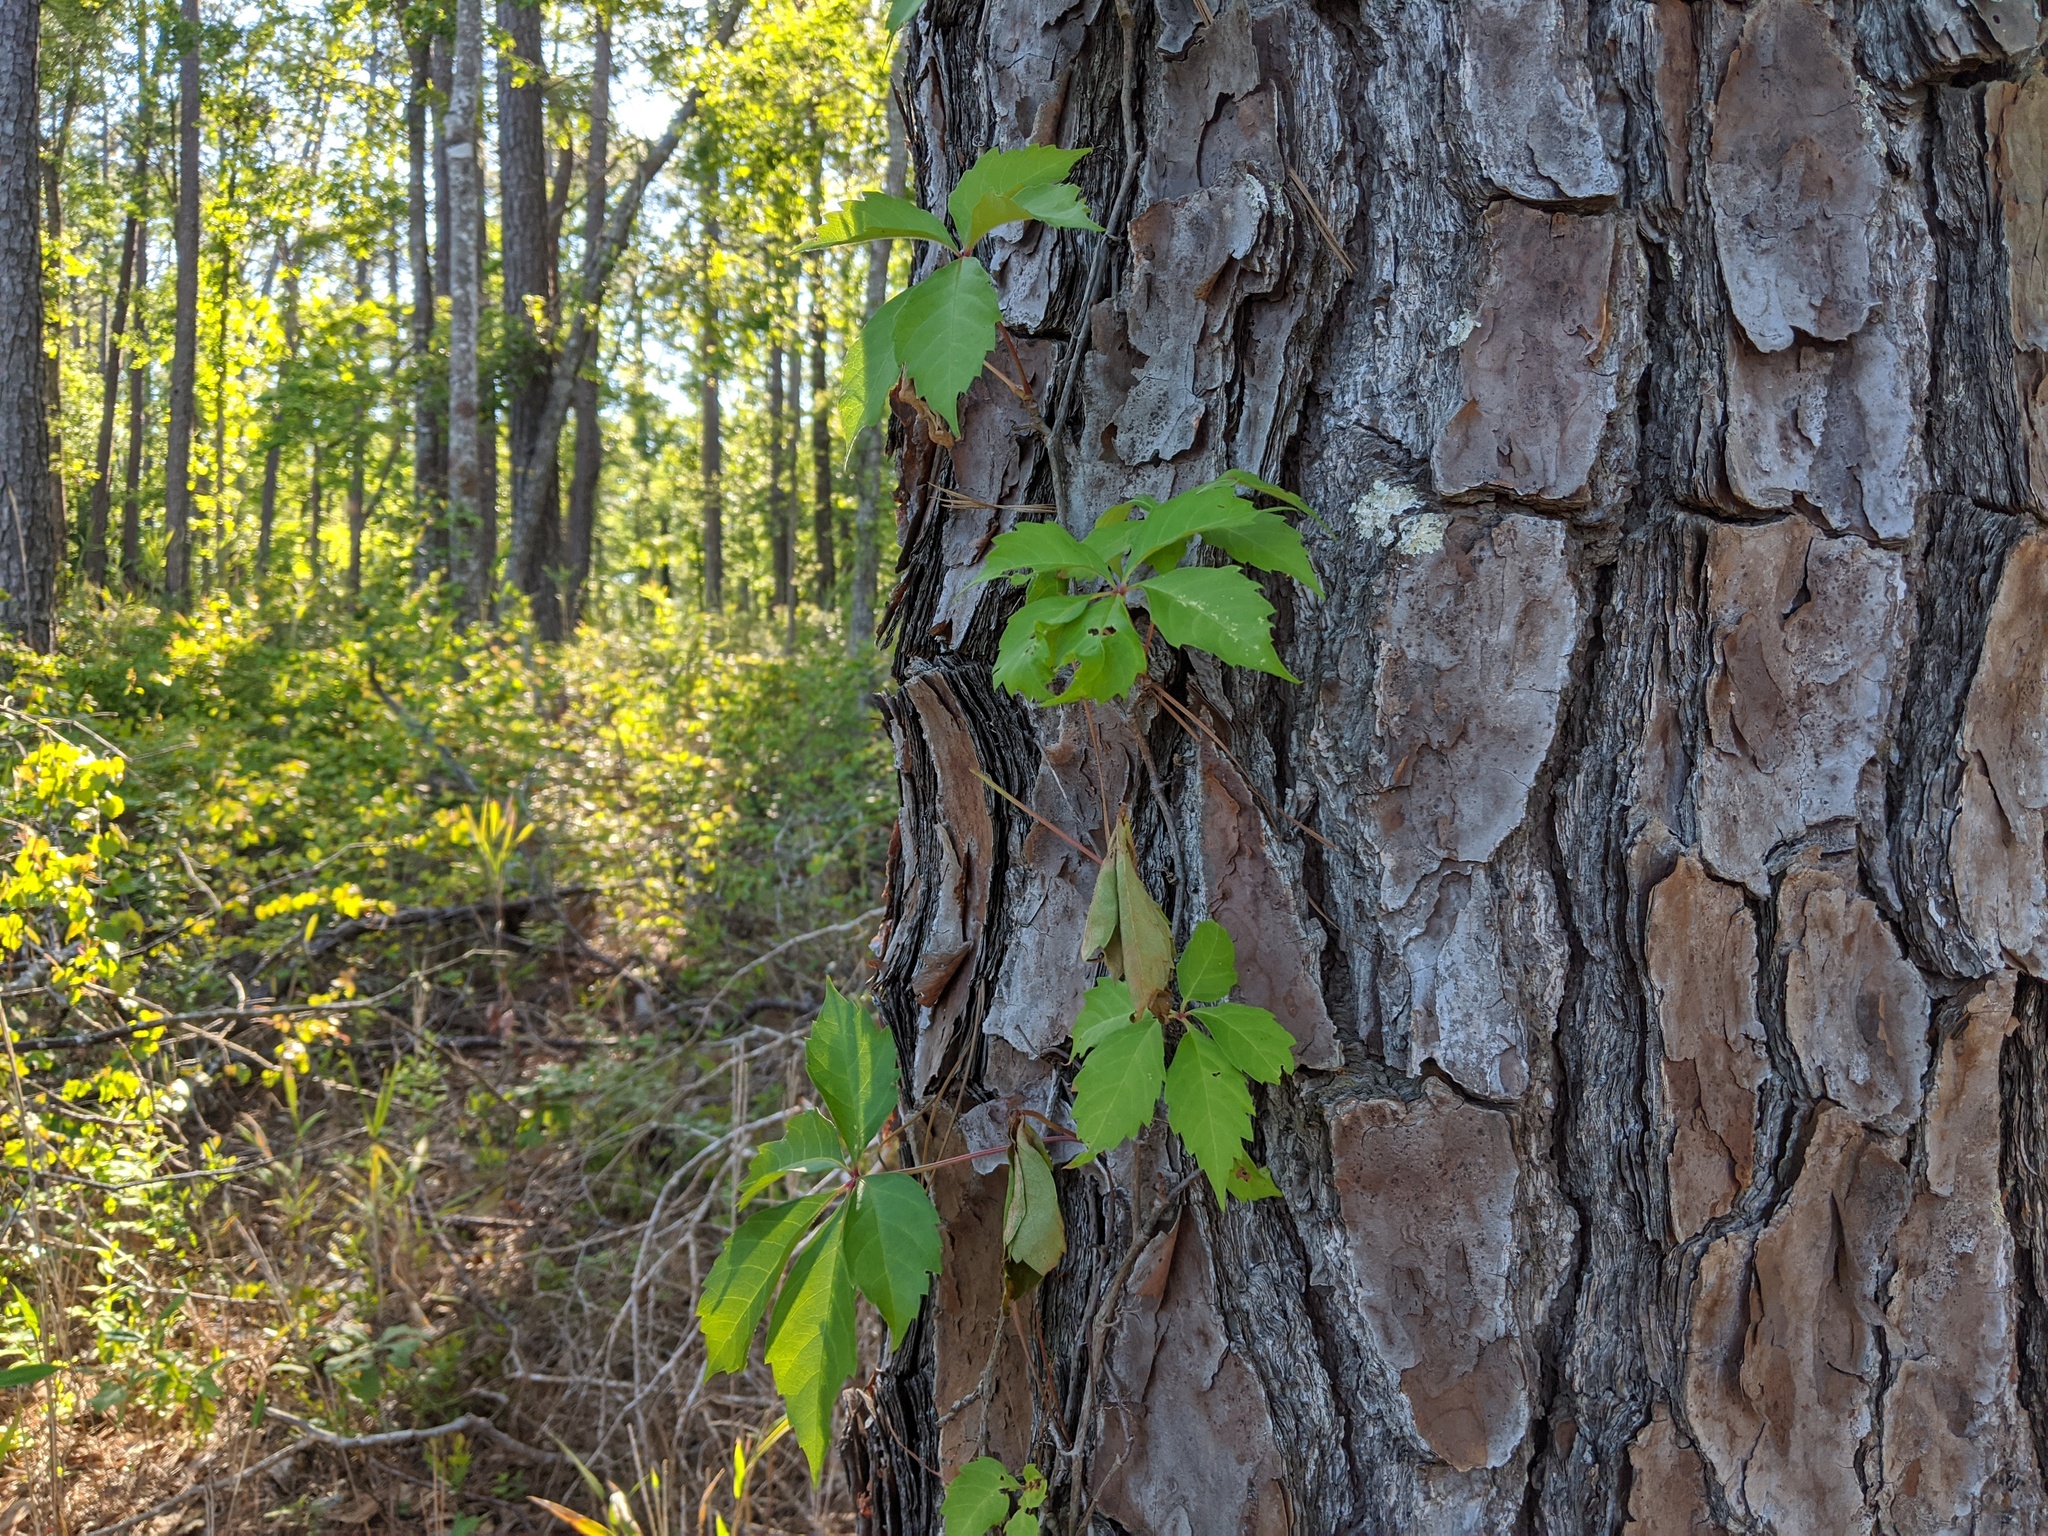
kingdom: Plantae
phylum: Tracheophyta
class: Magnoliopsida
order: Vitales
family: Vitaceae
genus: Parthenocissus
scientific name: Parthenocissus quinquefolia
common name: Virginia-creeper
